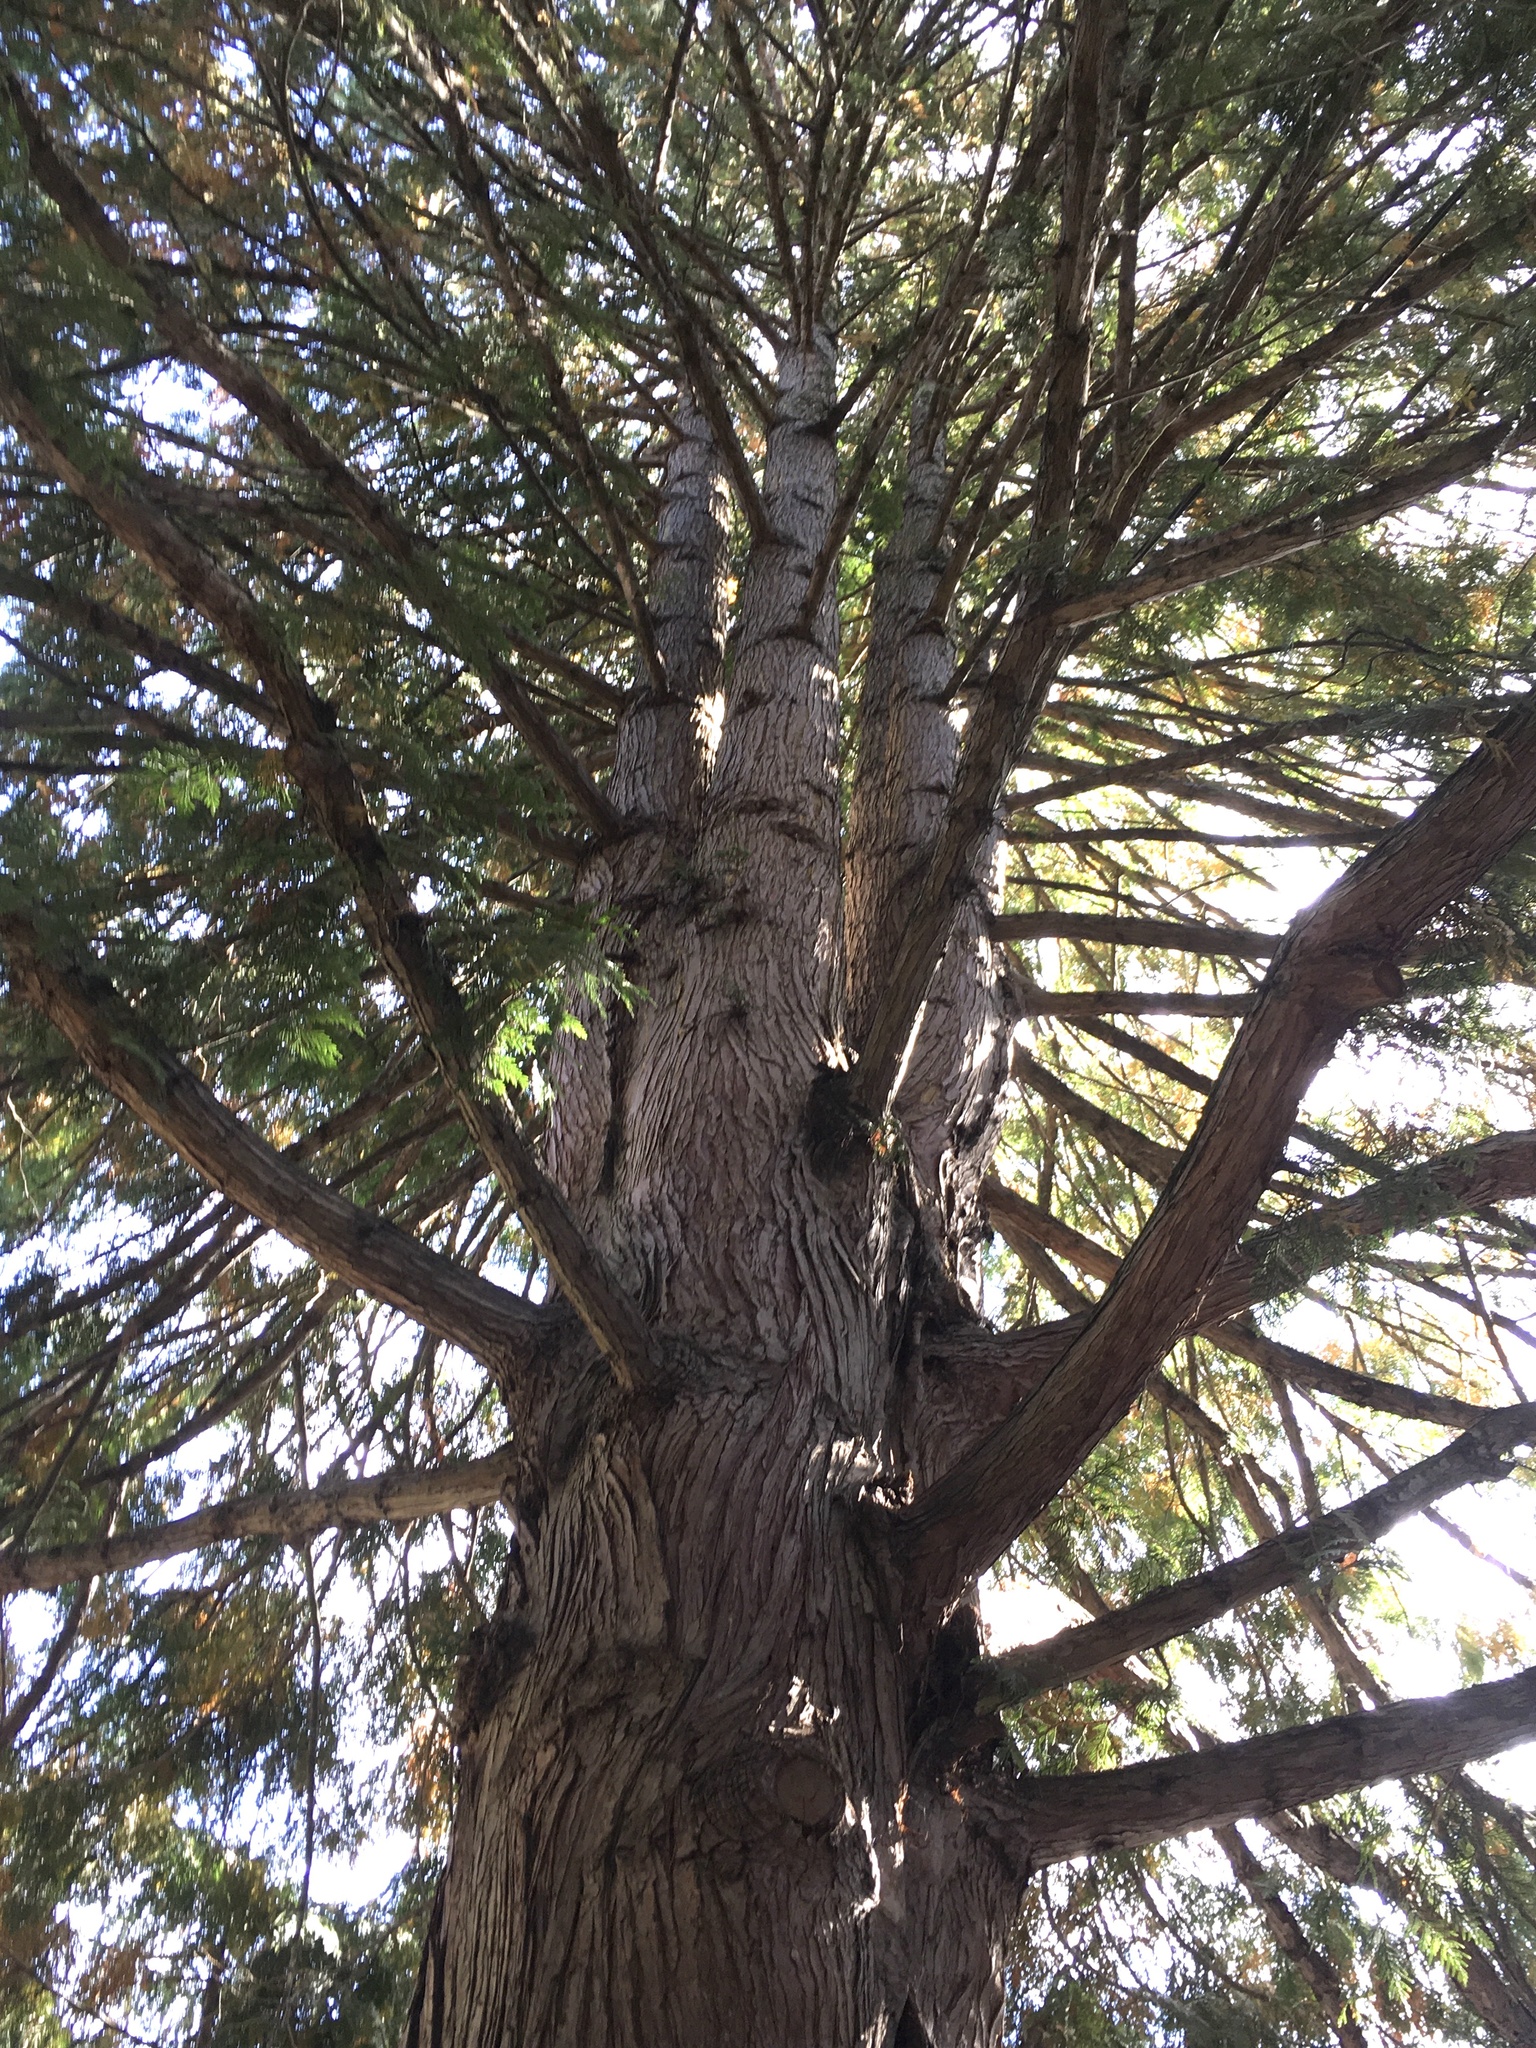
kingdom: Plantae
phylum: Tracheophyta
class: Pinopsida
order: Pinales
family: Cupressaceae
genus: Thuja
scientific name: Thuja plicata
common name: Western red-cedar
